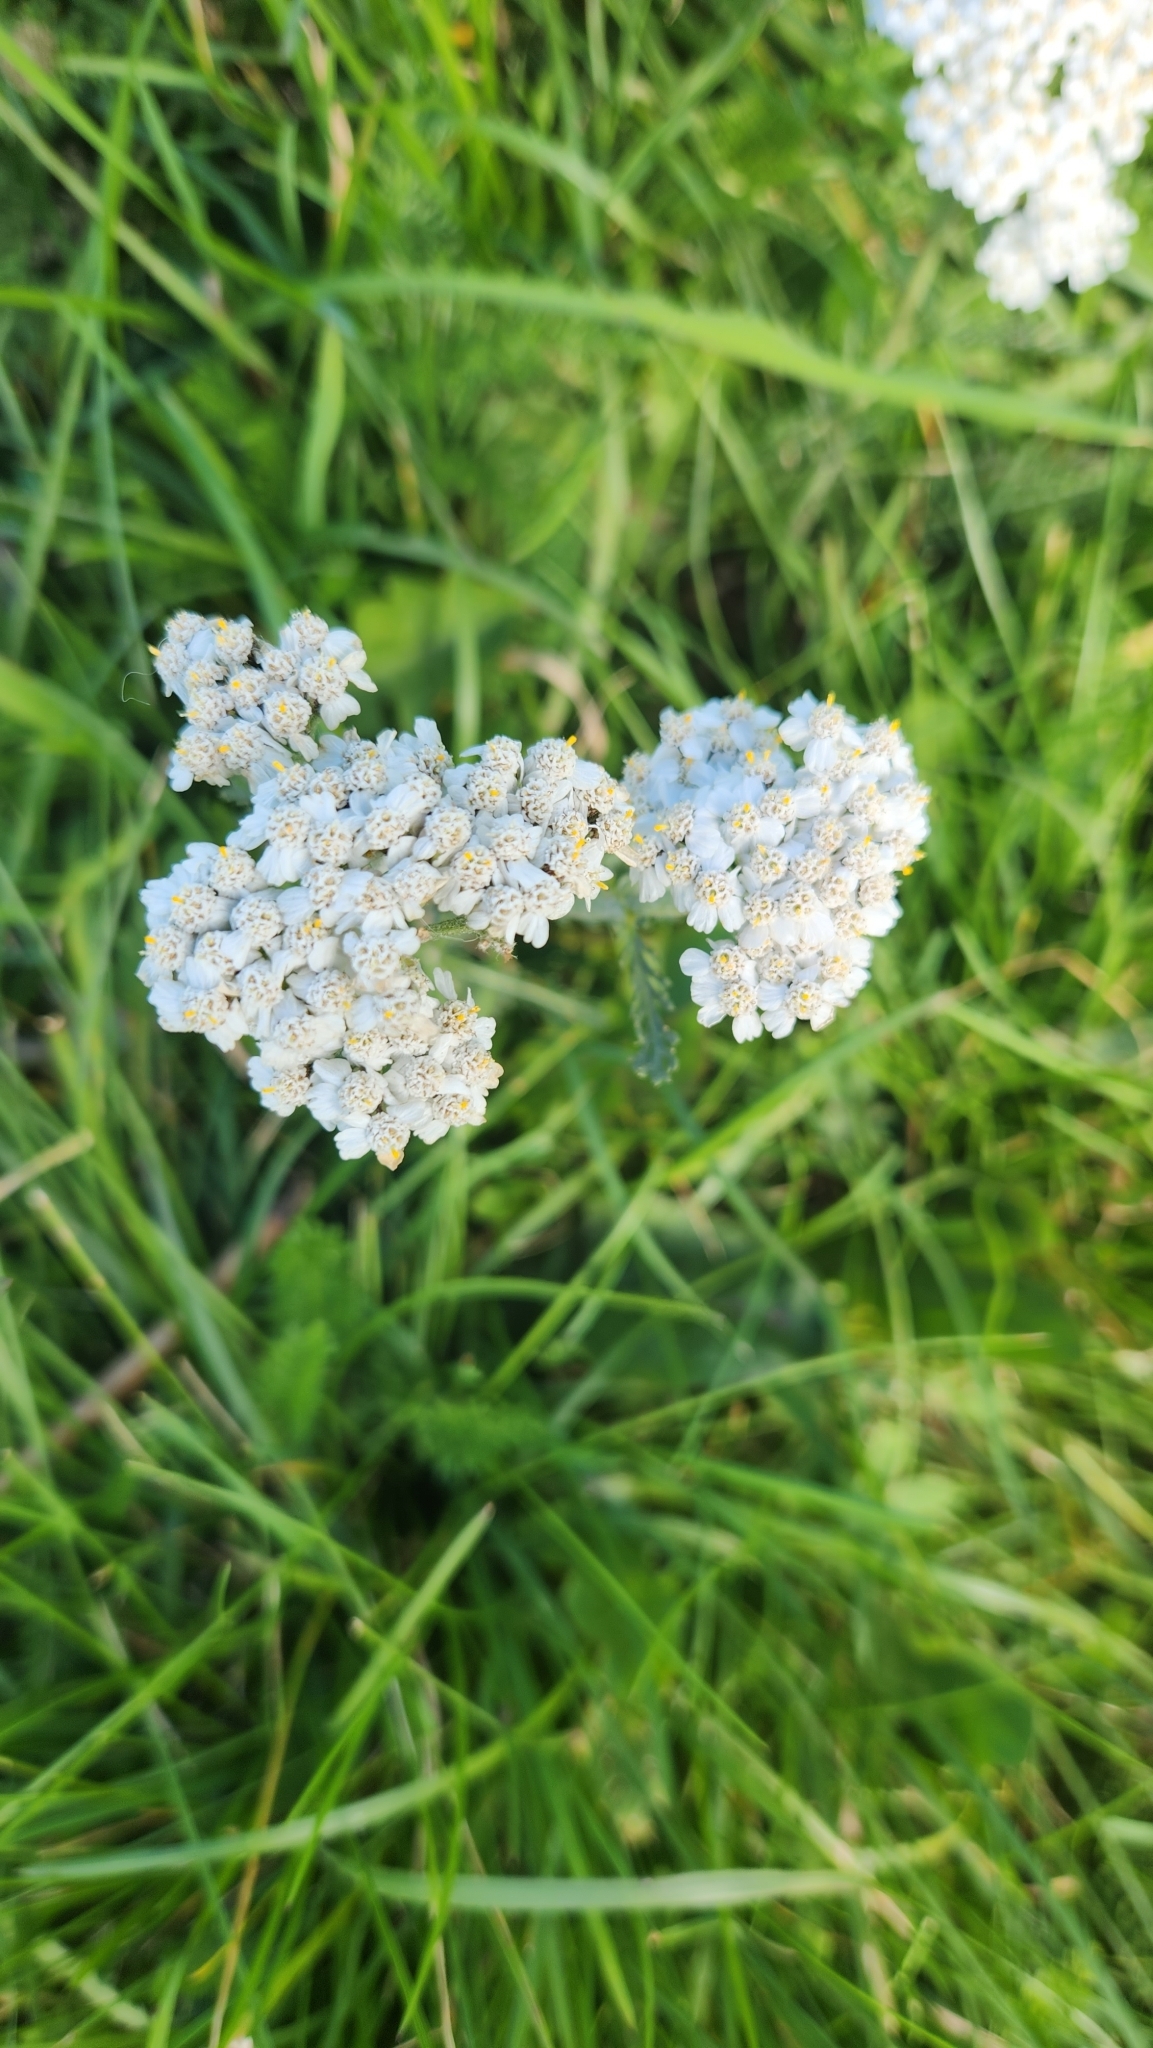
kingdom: Plantae
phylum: Tracheophyta
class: Magnoliopsida
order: Asterales
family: Asteraceae
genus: Achillea
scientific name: Achillea millefolium
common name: Yarrow
